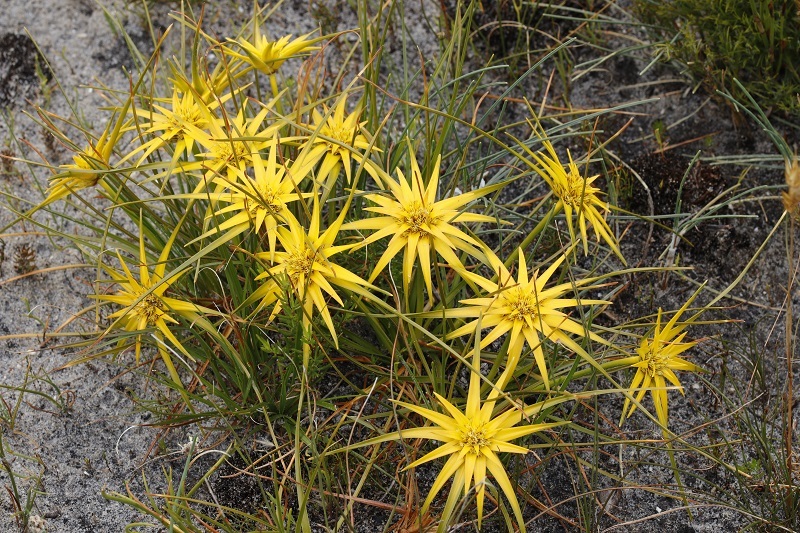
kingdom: Plantae
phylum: Tracheophyta
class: Liliopsida
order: Poales
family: Cyperaceae
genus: Ficinia
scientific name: Ficinia radiata
